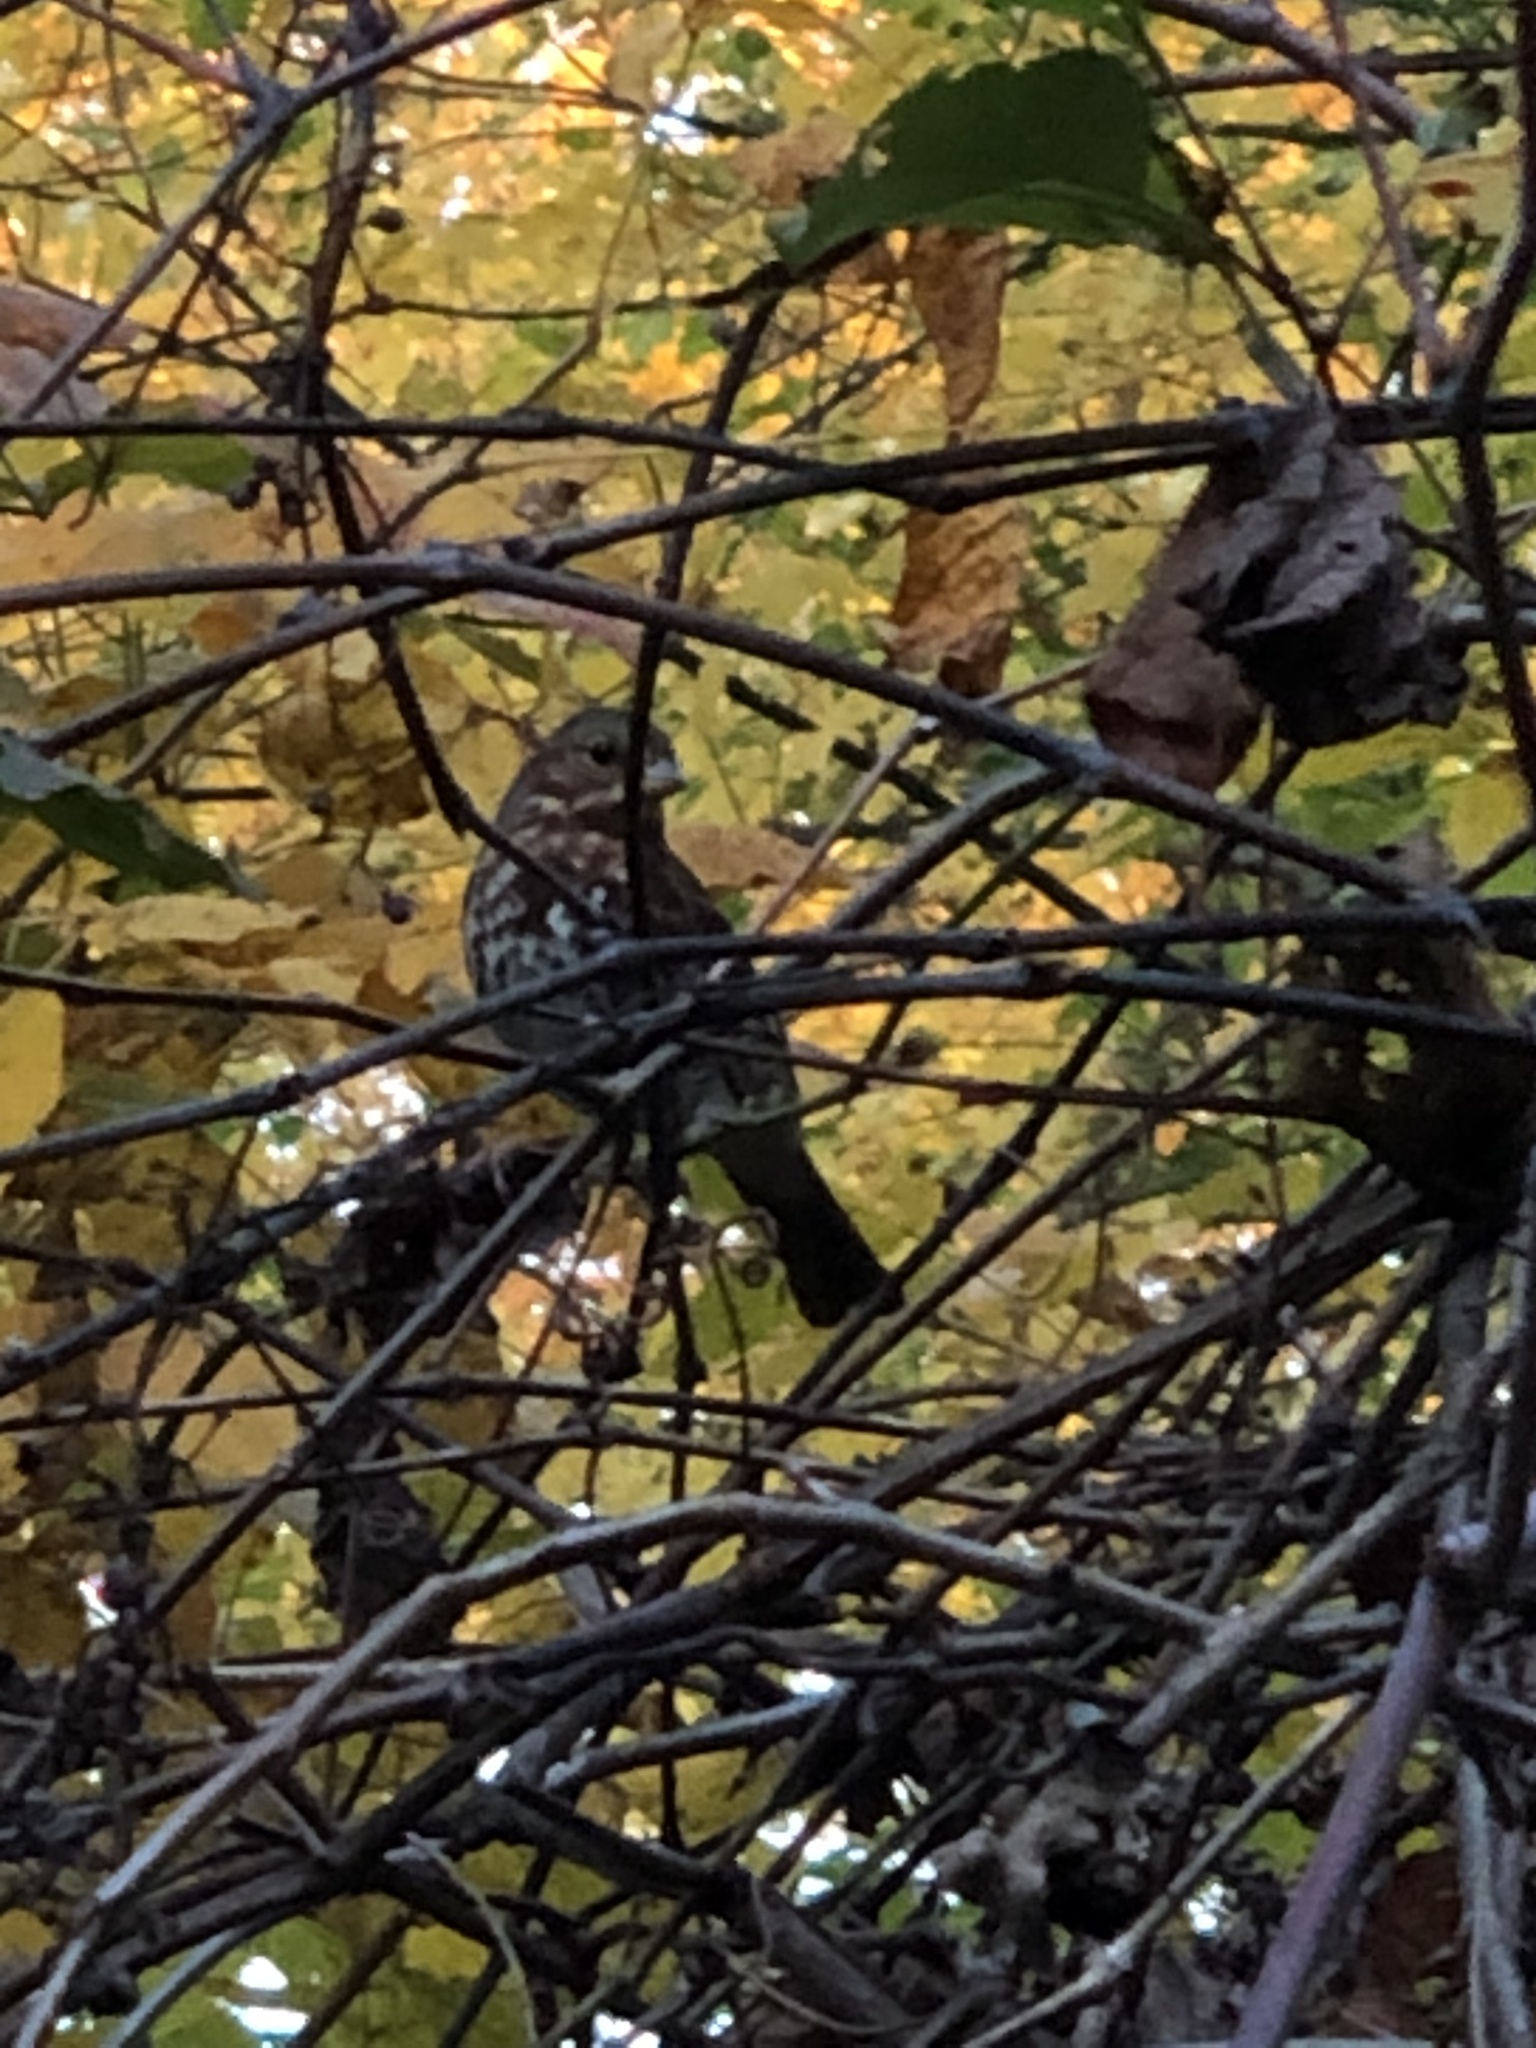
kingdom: Animalia
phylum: Chordata
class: Aves
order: Passeriformes
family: Passerellidae
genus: Passerella
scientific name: Passerella iliaca
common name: Fox sparrow
